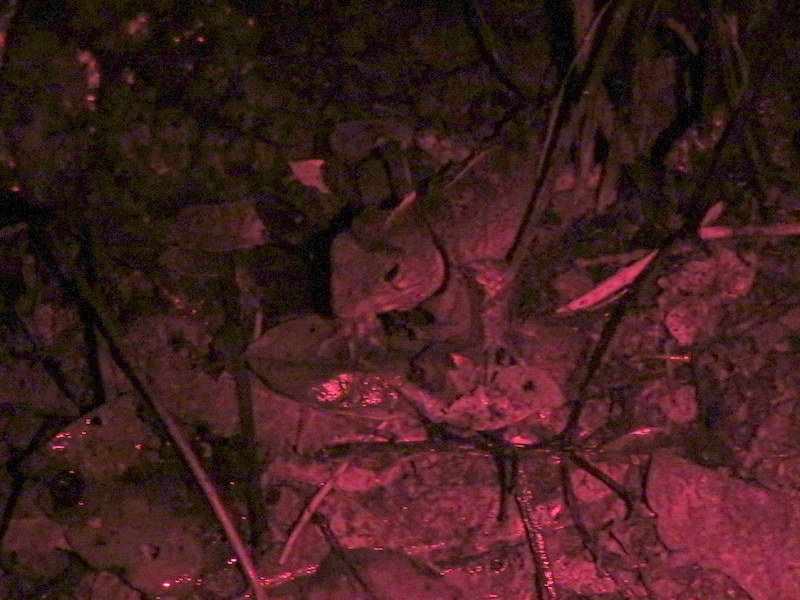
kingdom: Animalia
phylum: Chordata
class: Sphenodontia
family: Sphenodontidae
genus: Sphenodon
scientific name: Sphenodon punctatus
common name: Tuatara
